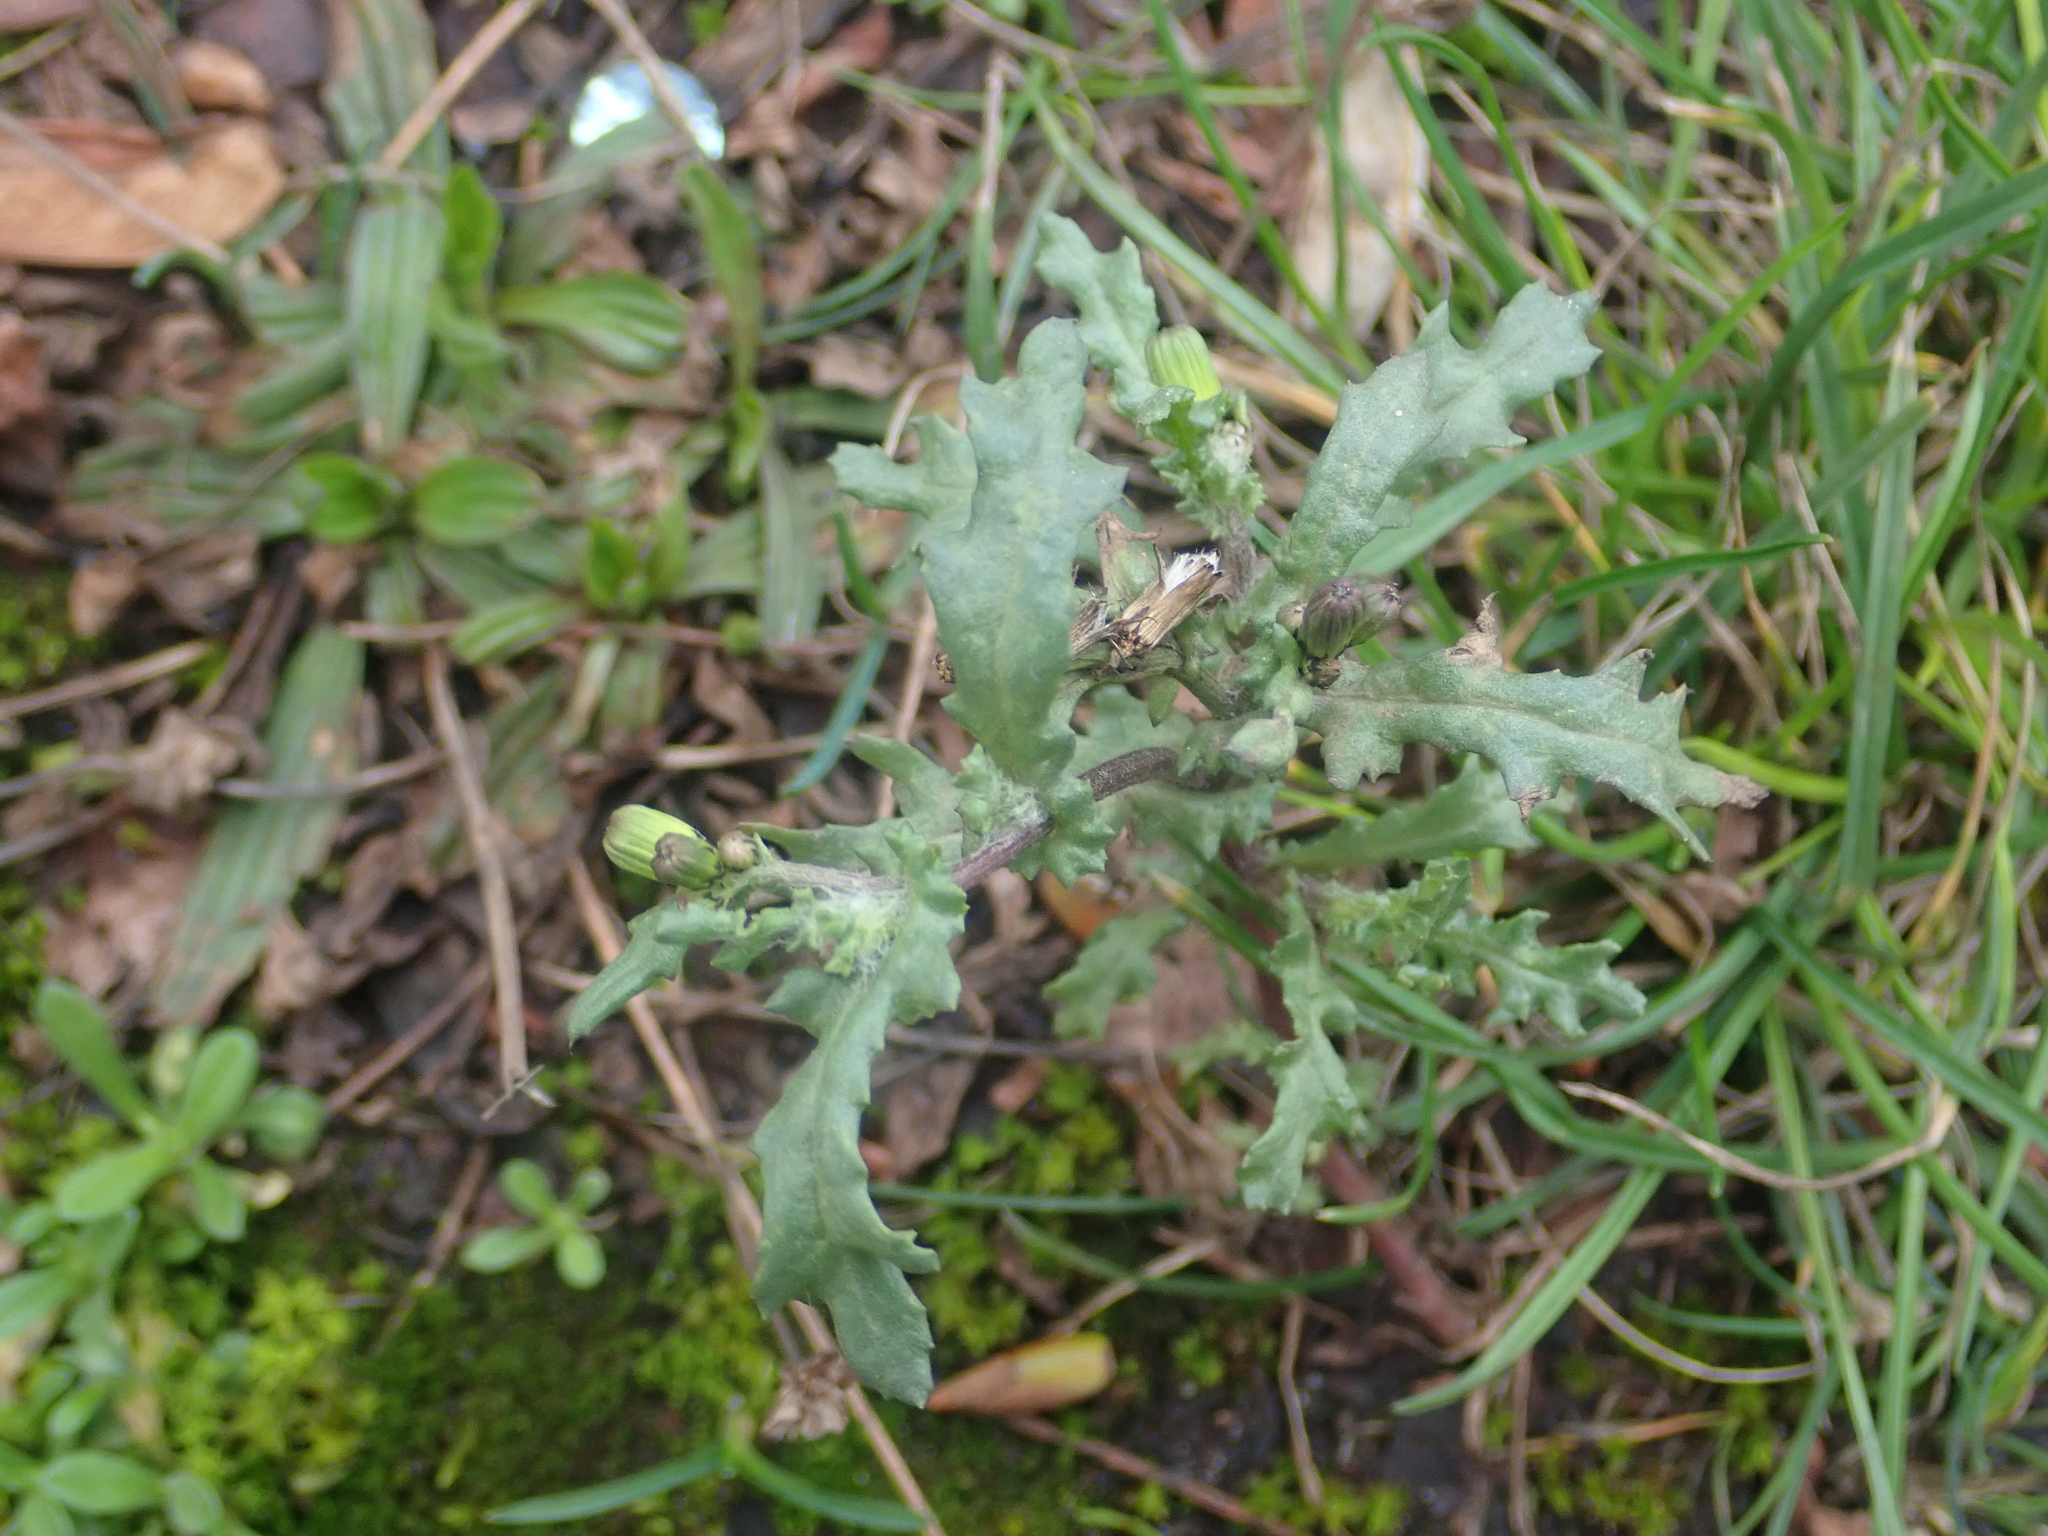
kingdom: Plantae
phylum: Tracheophyta
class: Magnoliopsida
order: Asterales
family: Asteraceae
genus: Senecio
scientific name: Senecio vulgaris
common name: Old-man-in-the-spring
